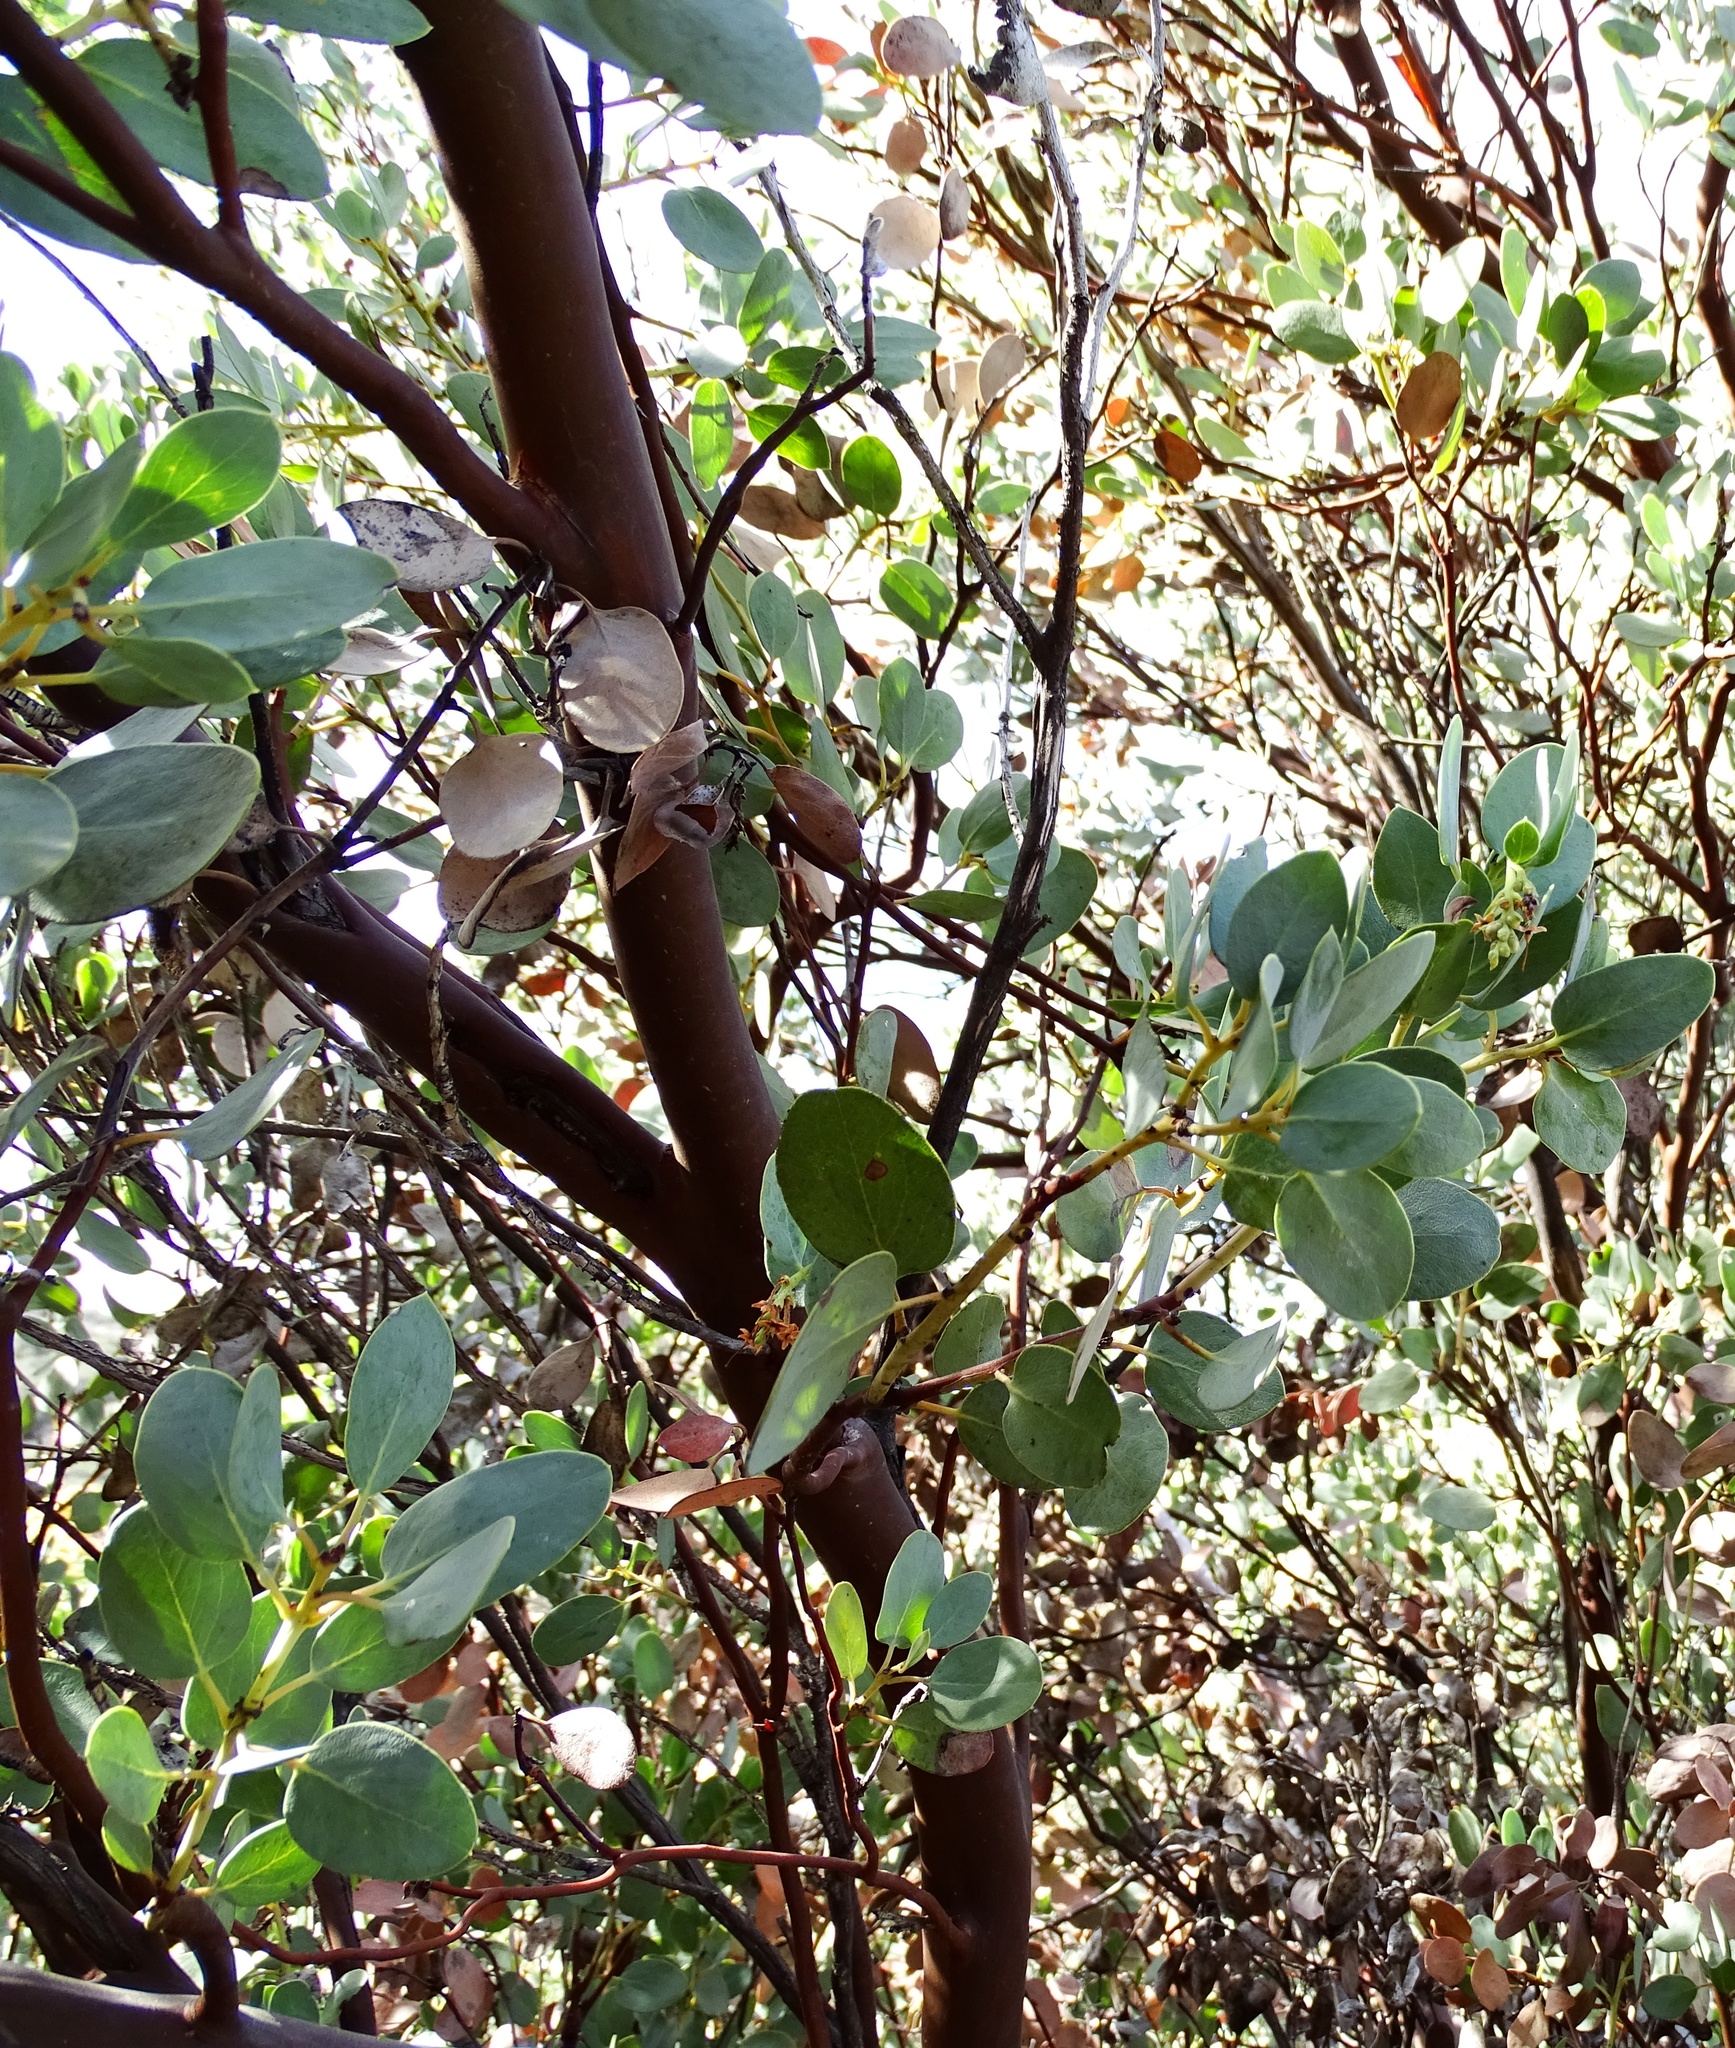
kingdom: Plantae
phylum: Tracheophyta
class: Magnoliopsida
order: Ericales
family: Ericaceae
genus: Arctostaphylos
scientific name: Arctostaphylos glauca
